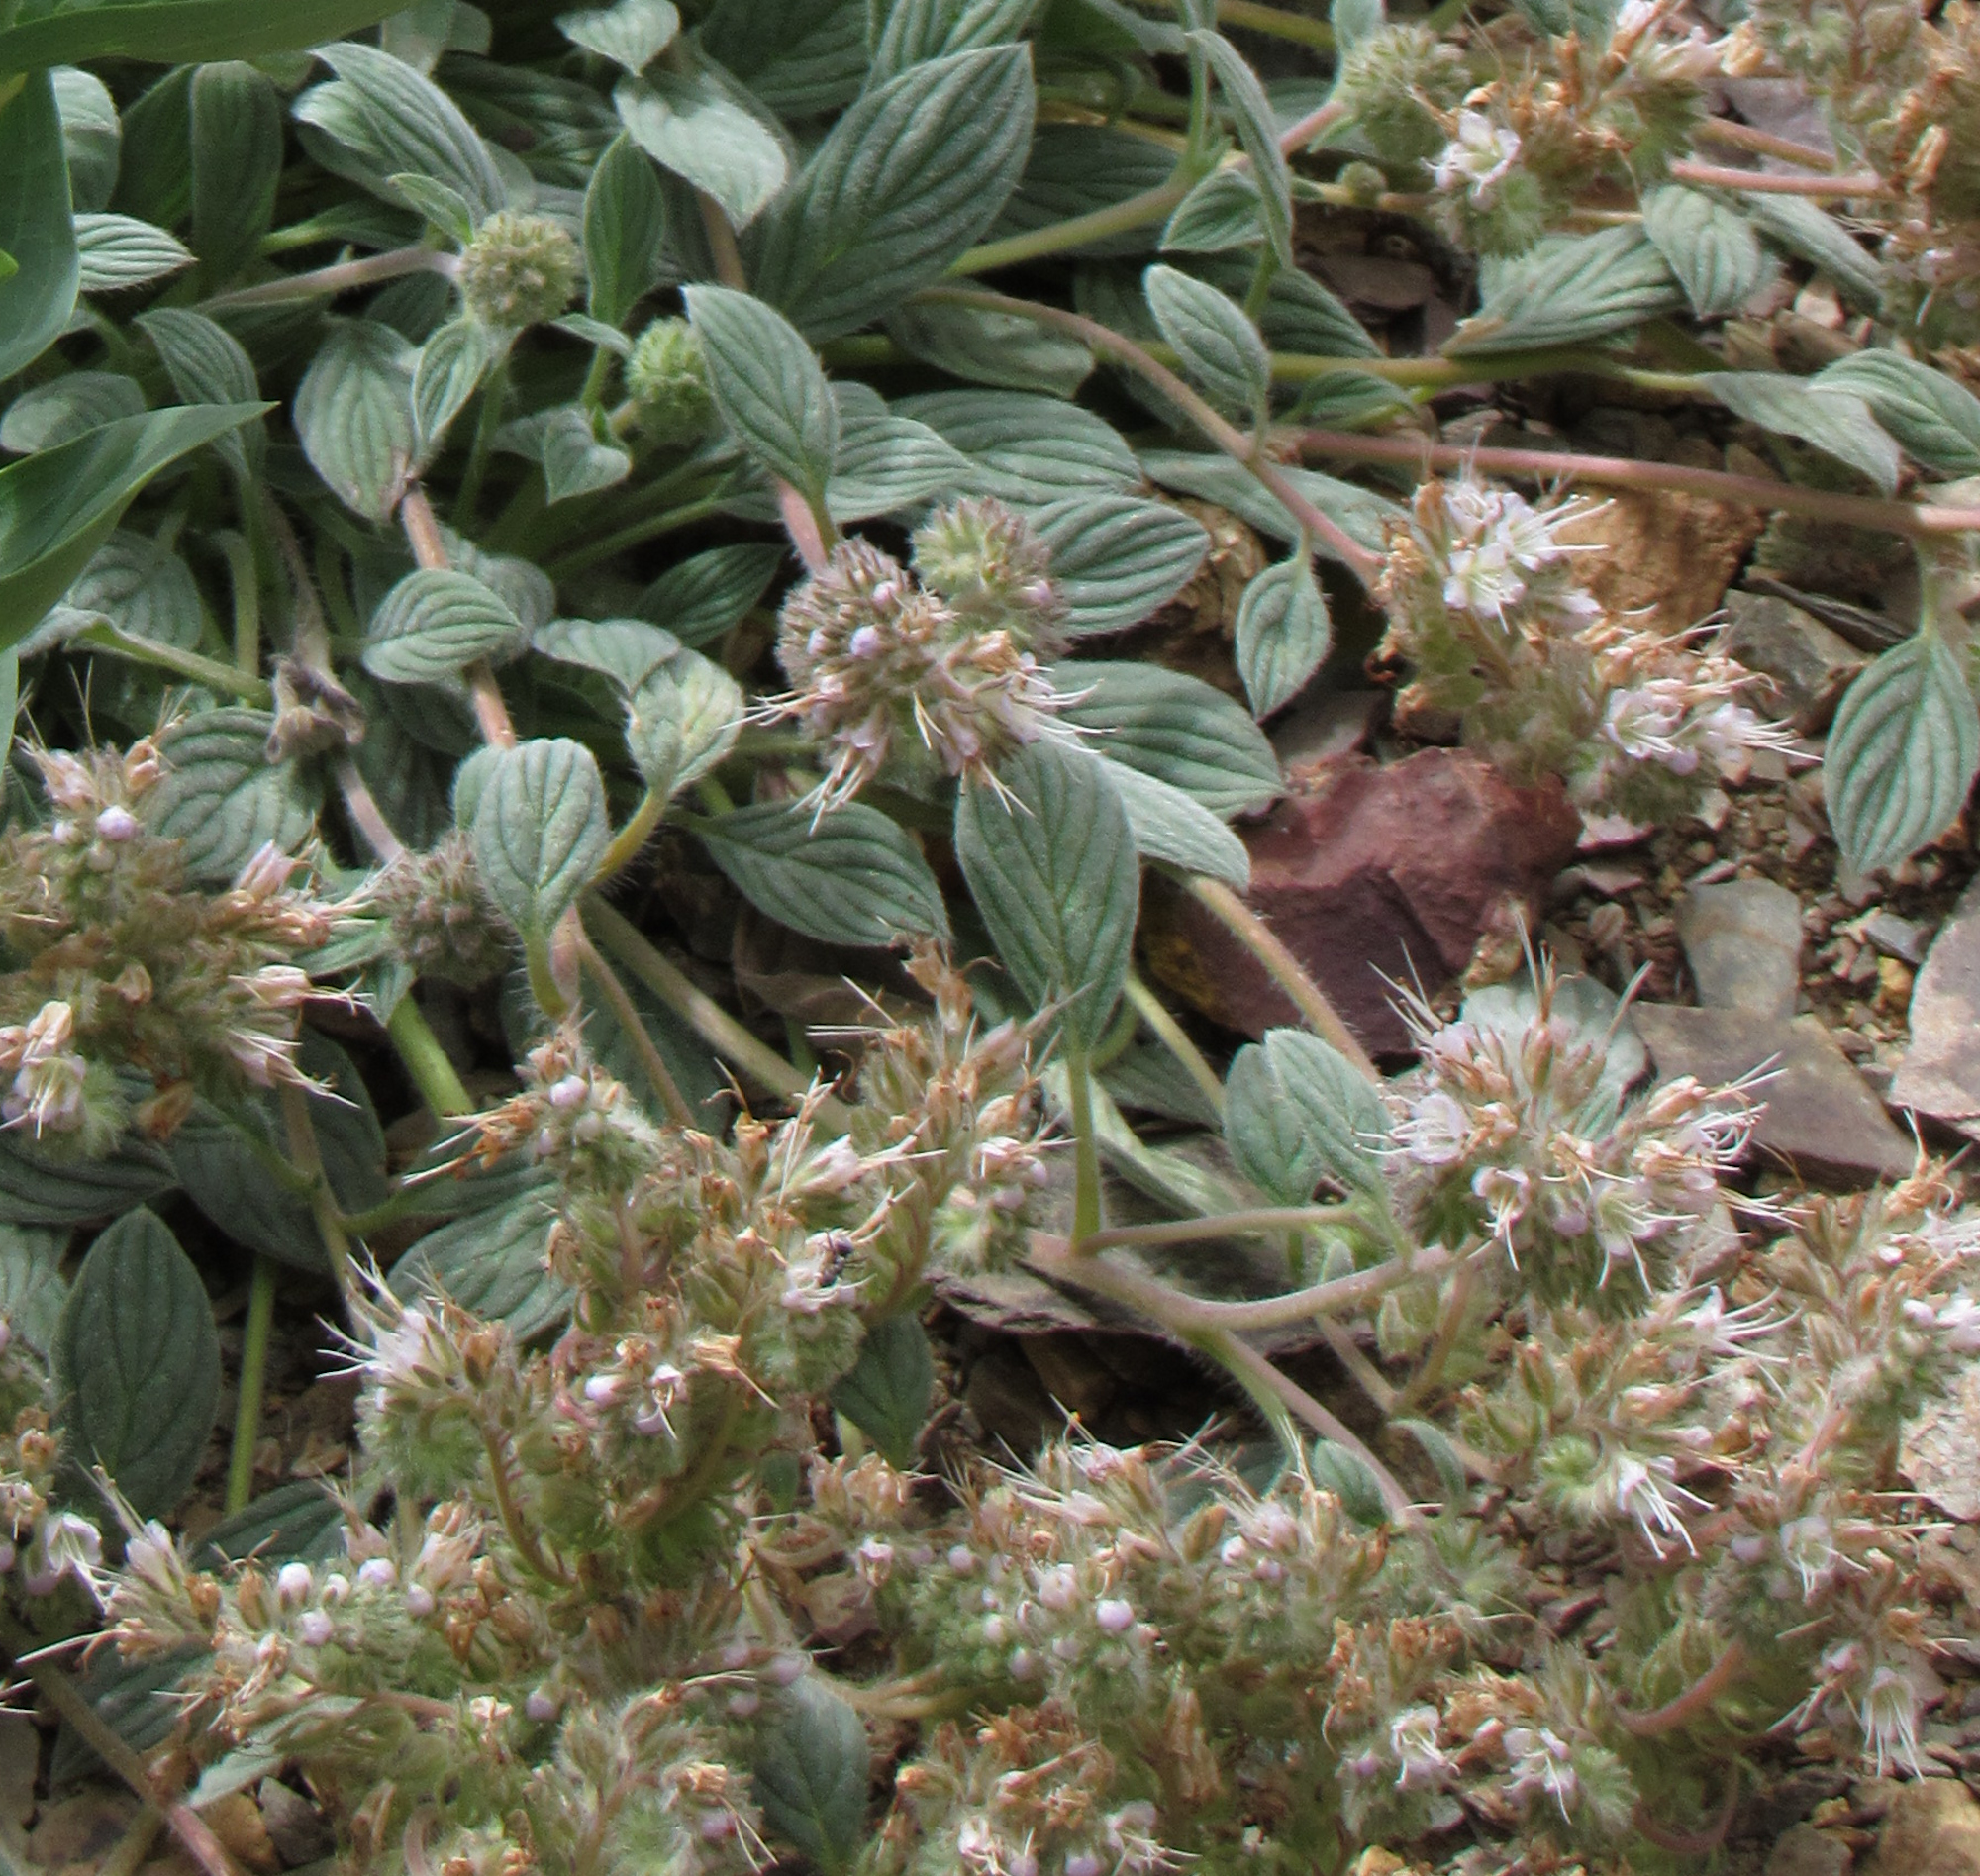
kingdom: Plantae
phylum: Tracheophyta
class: Magnoliopsida
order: Boraginales
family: Hydrophyllaceae
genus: Phacelia
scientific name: Phacelia hastata
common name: Silver-leaved phacelia
